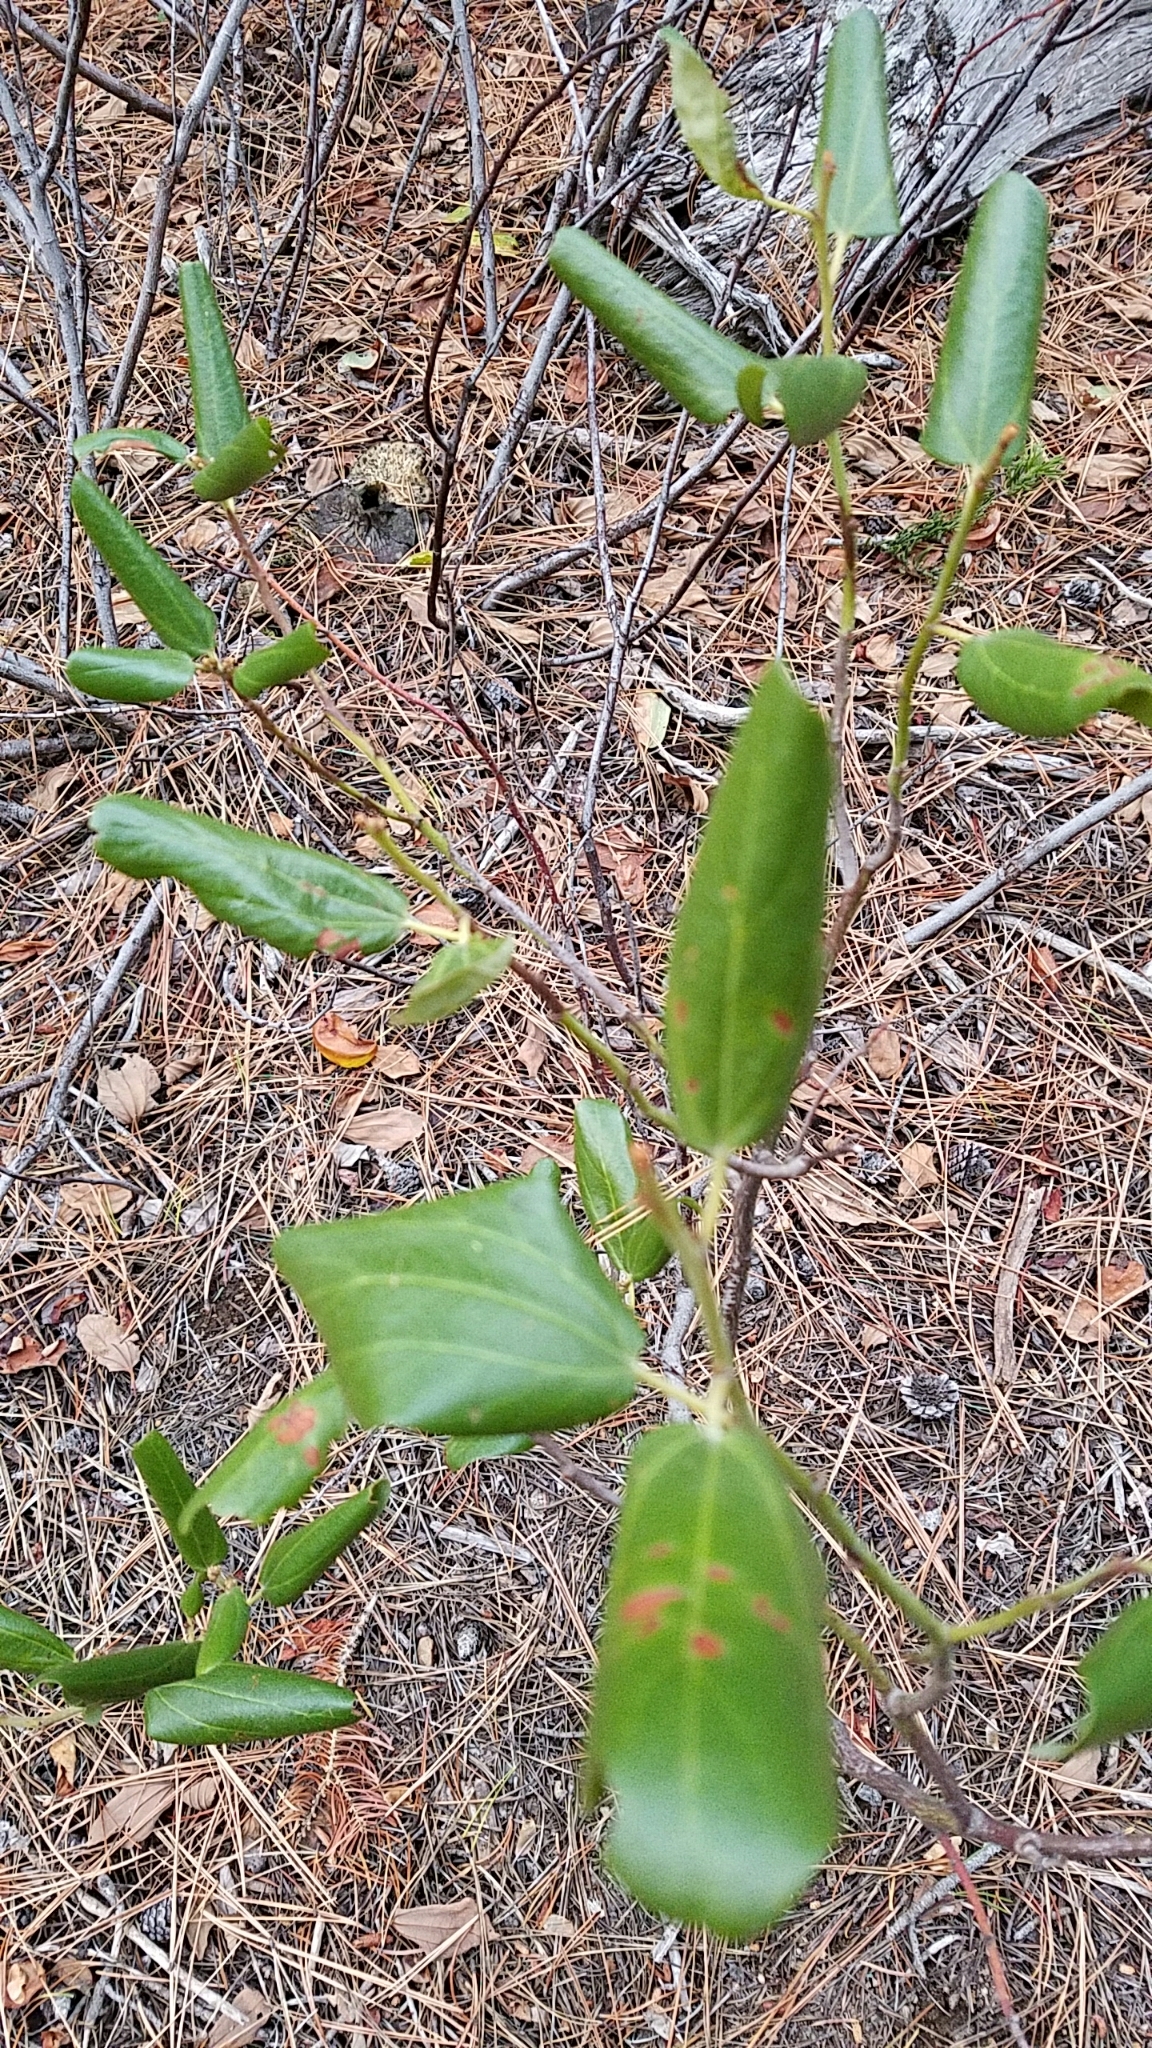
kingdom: Plantae
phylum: Tracheophyta
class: Magnoliopsida
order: Rosales
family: Rhamnaceae
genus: Ceanothus
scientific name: Ceanothus velutinus
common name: Snowbrush
